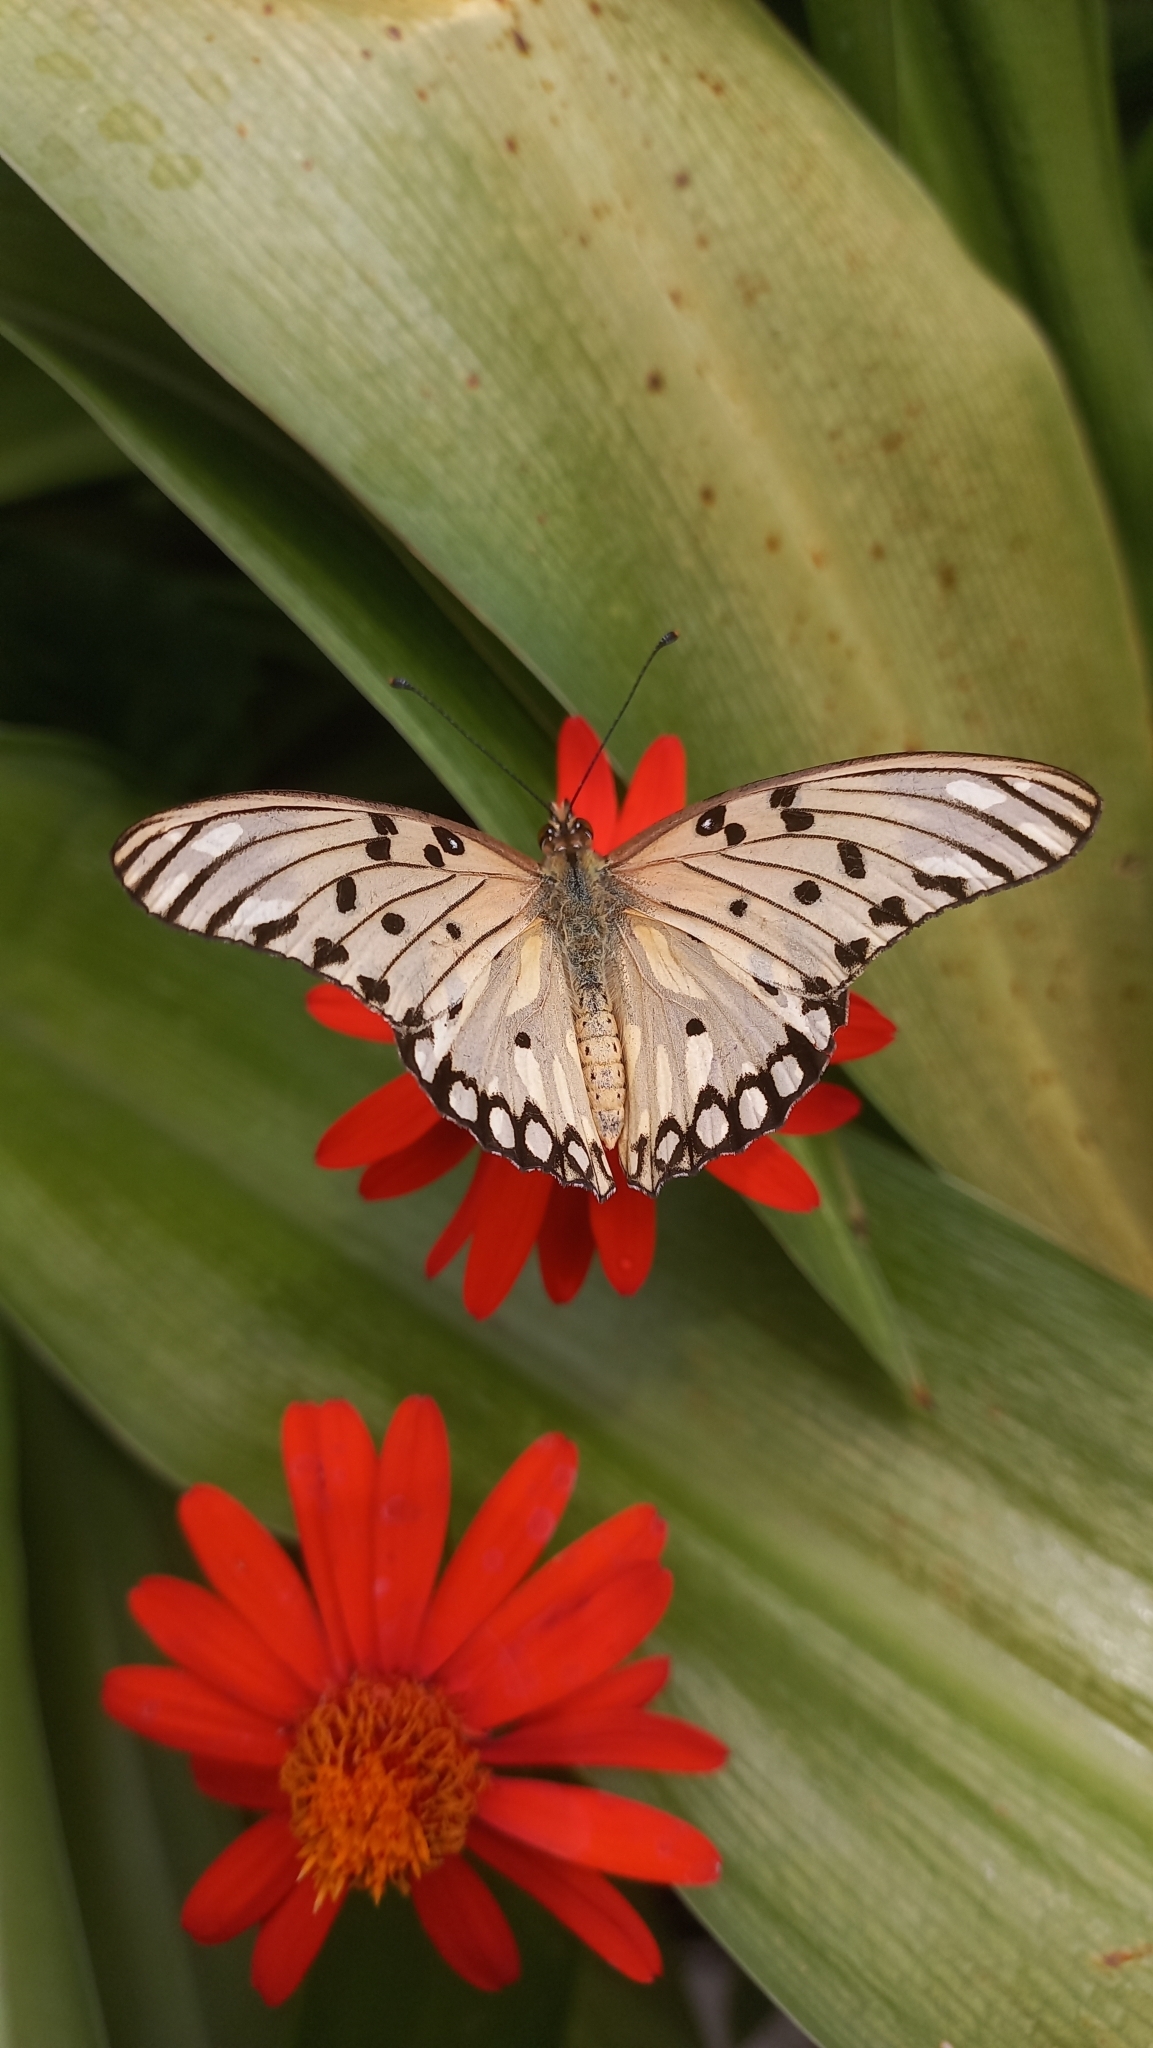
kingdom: Animalia
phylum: Arthropoda
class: Insecta
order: Lepidoptera
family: Nymphalidae
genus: Dione
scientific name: Dione vanillae
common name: Gulf fritillary
